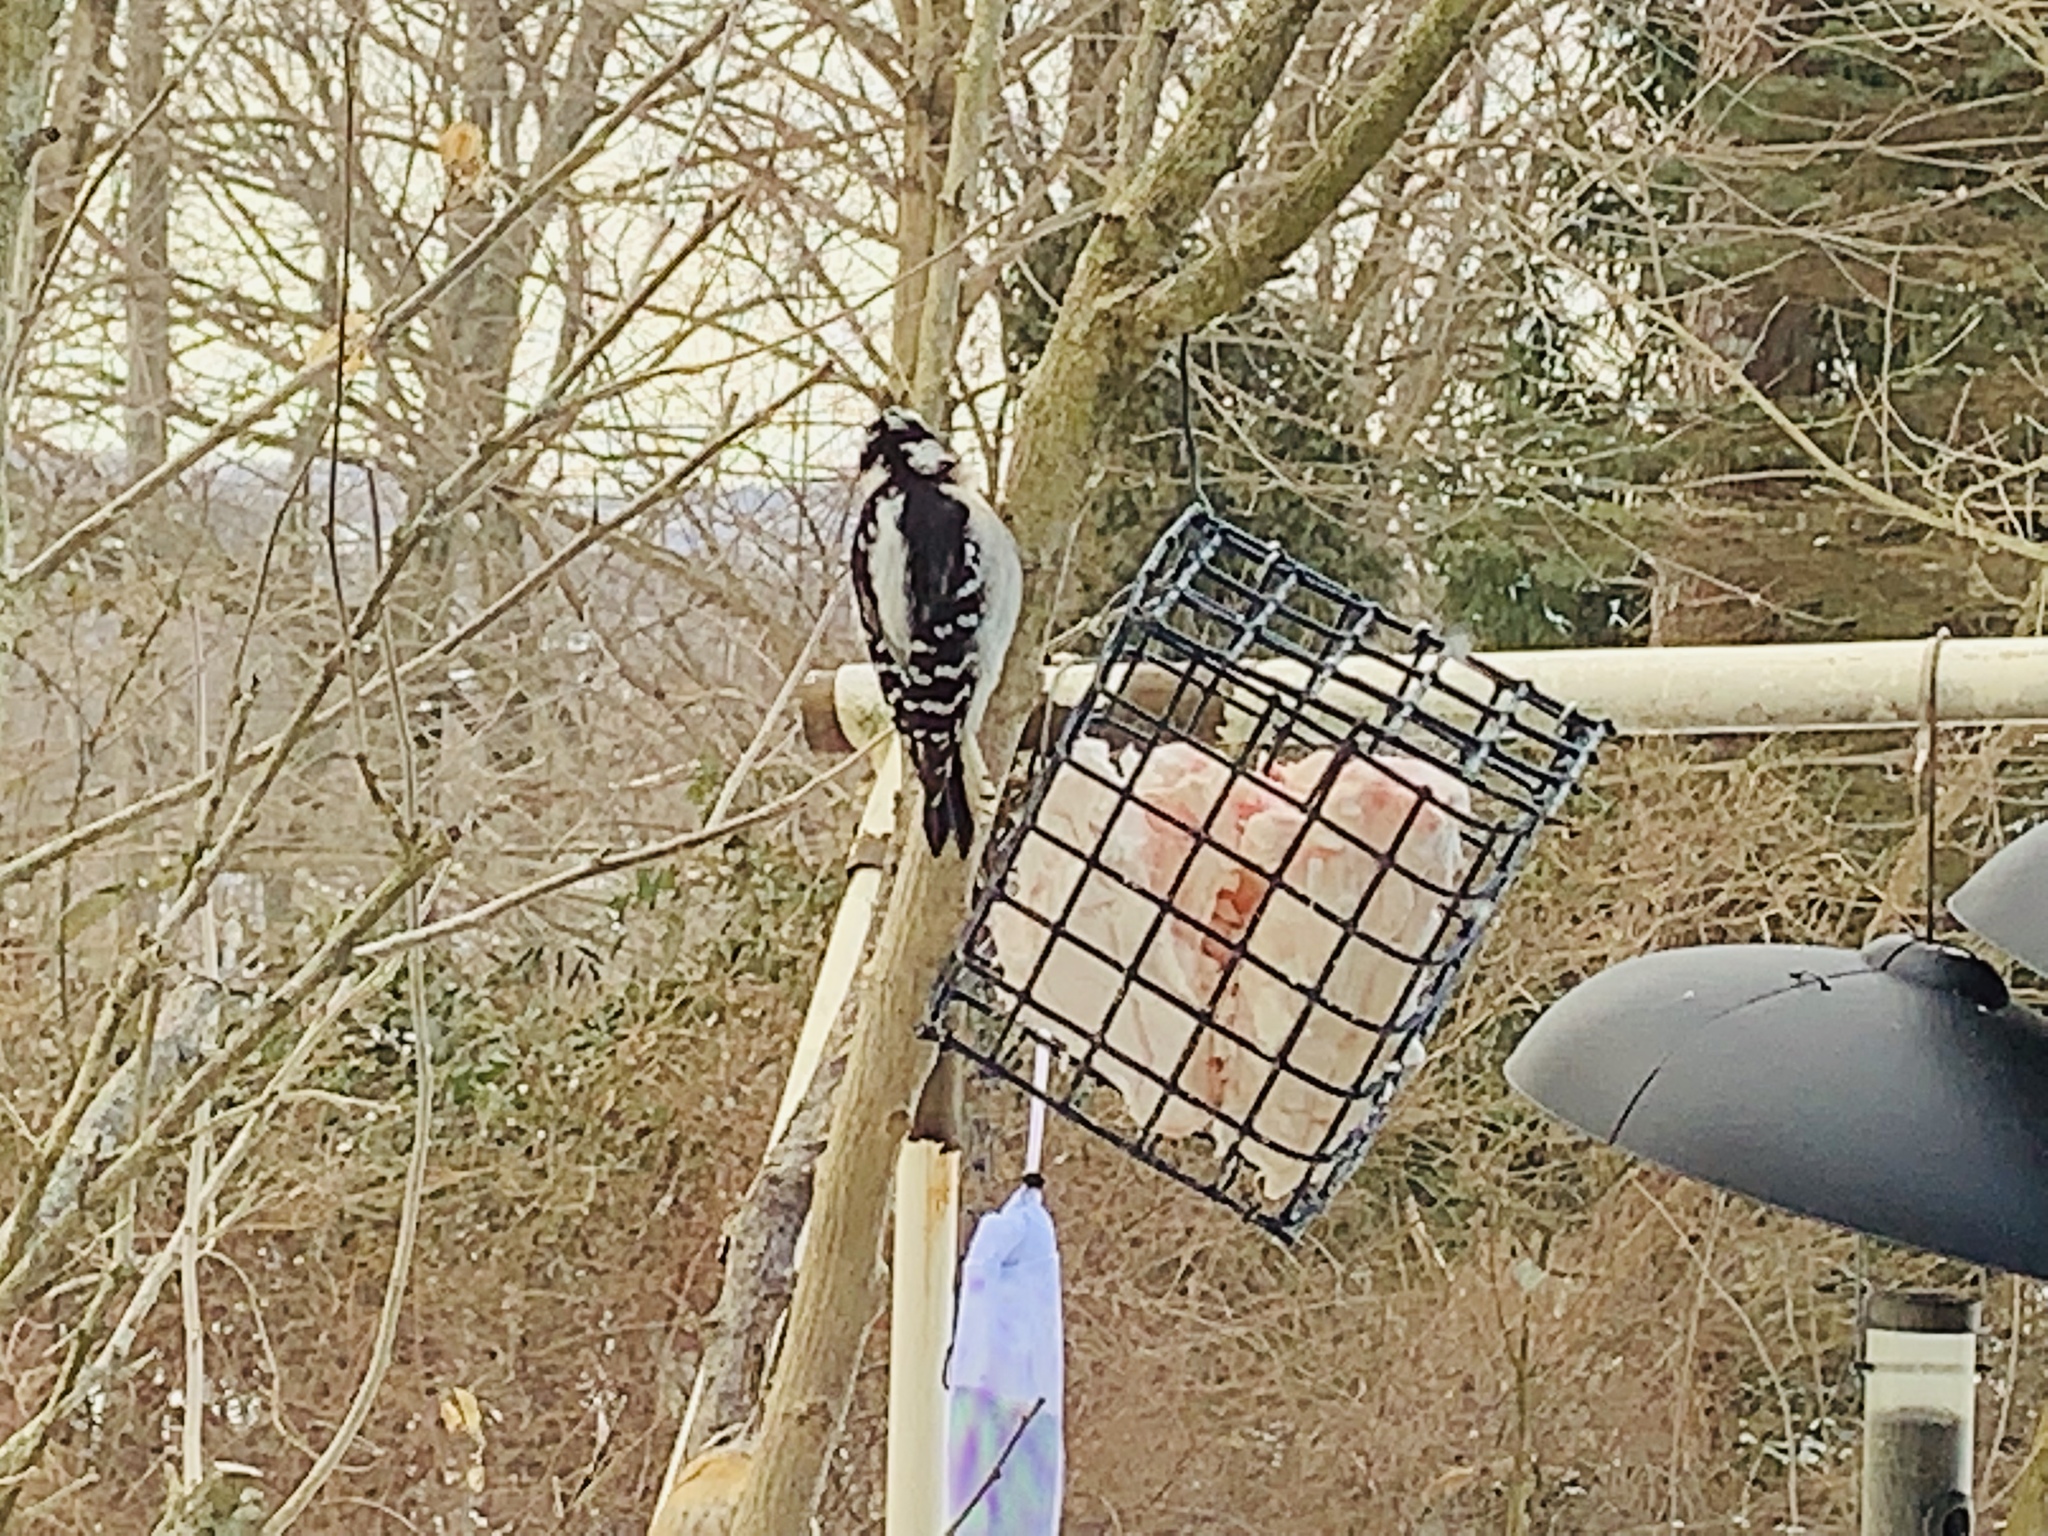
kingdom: Animalia
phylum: Chordata
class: Aves
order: Piciformes
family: Picidae
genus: Dryobates
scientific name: Dryobates pubescens
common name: Downy woodpecker
